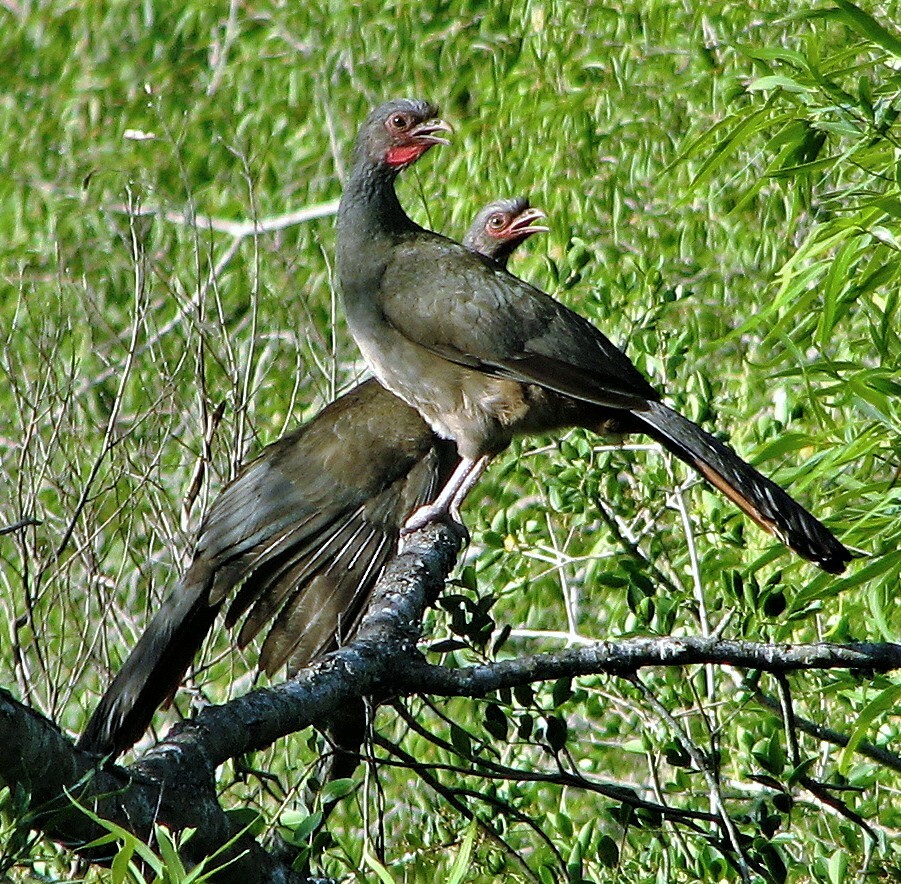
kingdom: Animalia
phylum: Chordata
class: Aves
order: Galliformes
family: Cracidae
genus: Ortalis
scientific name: Ortalis canicollis
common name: Chaco chachalaca
